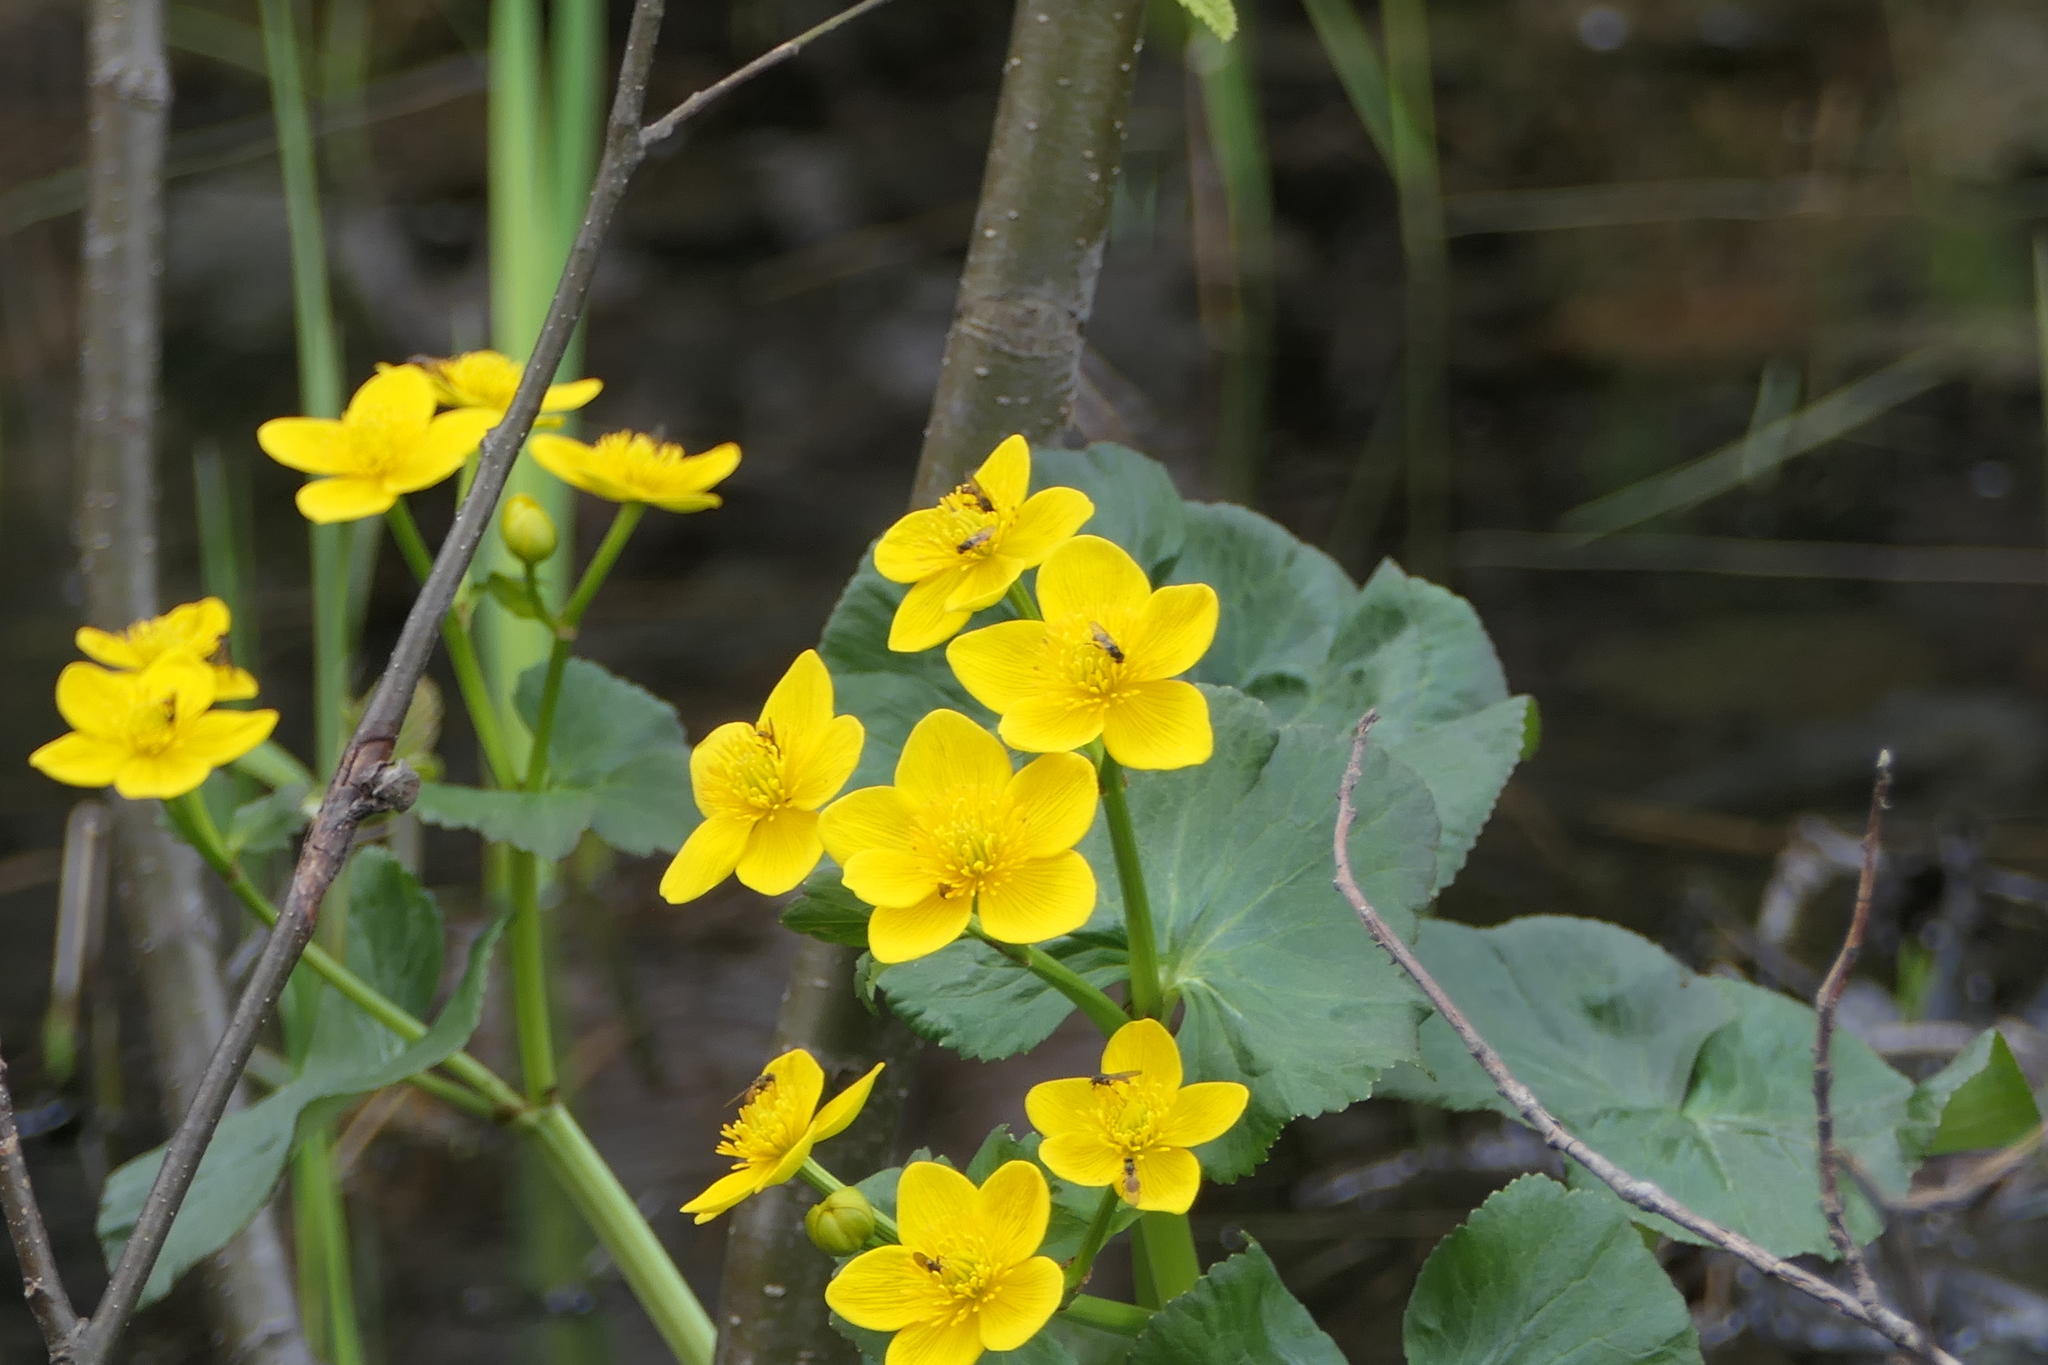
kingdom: Plantae
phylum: Tracheophyta
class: Magnoliopsida
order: Ranunculales
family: Ranunculaceae
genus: Caltha
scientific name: Caltha palustris
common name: Marsh marigold
